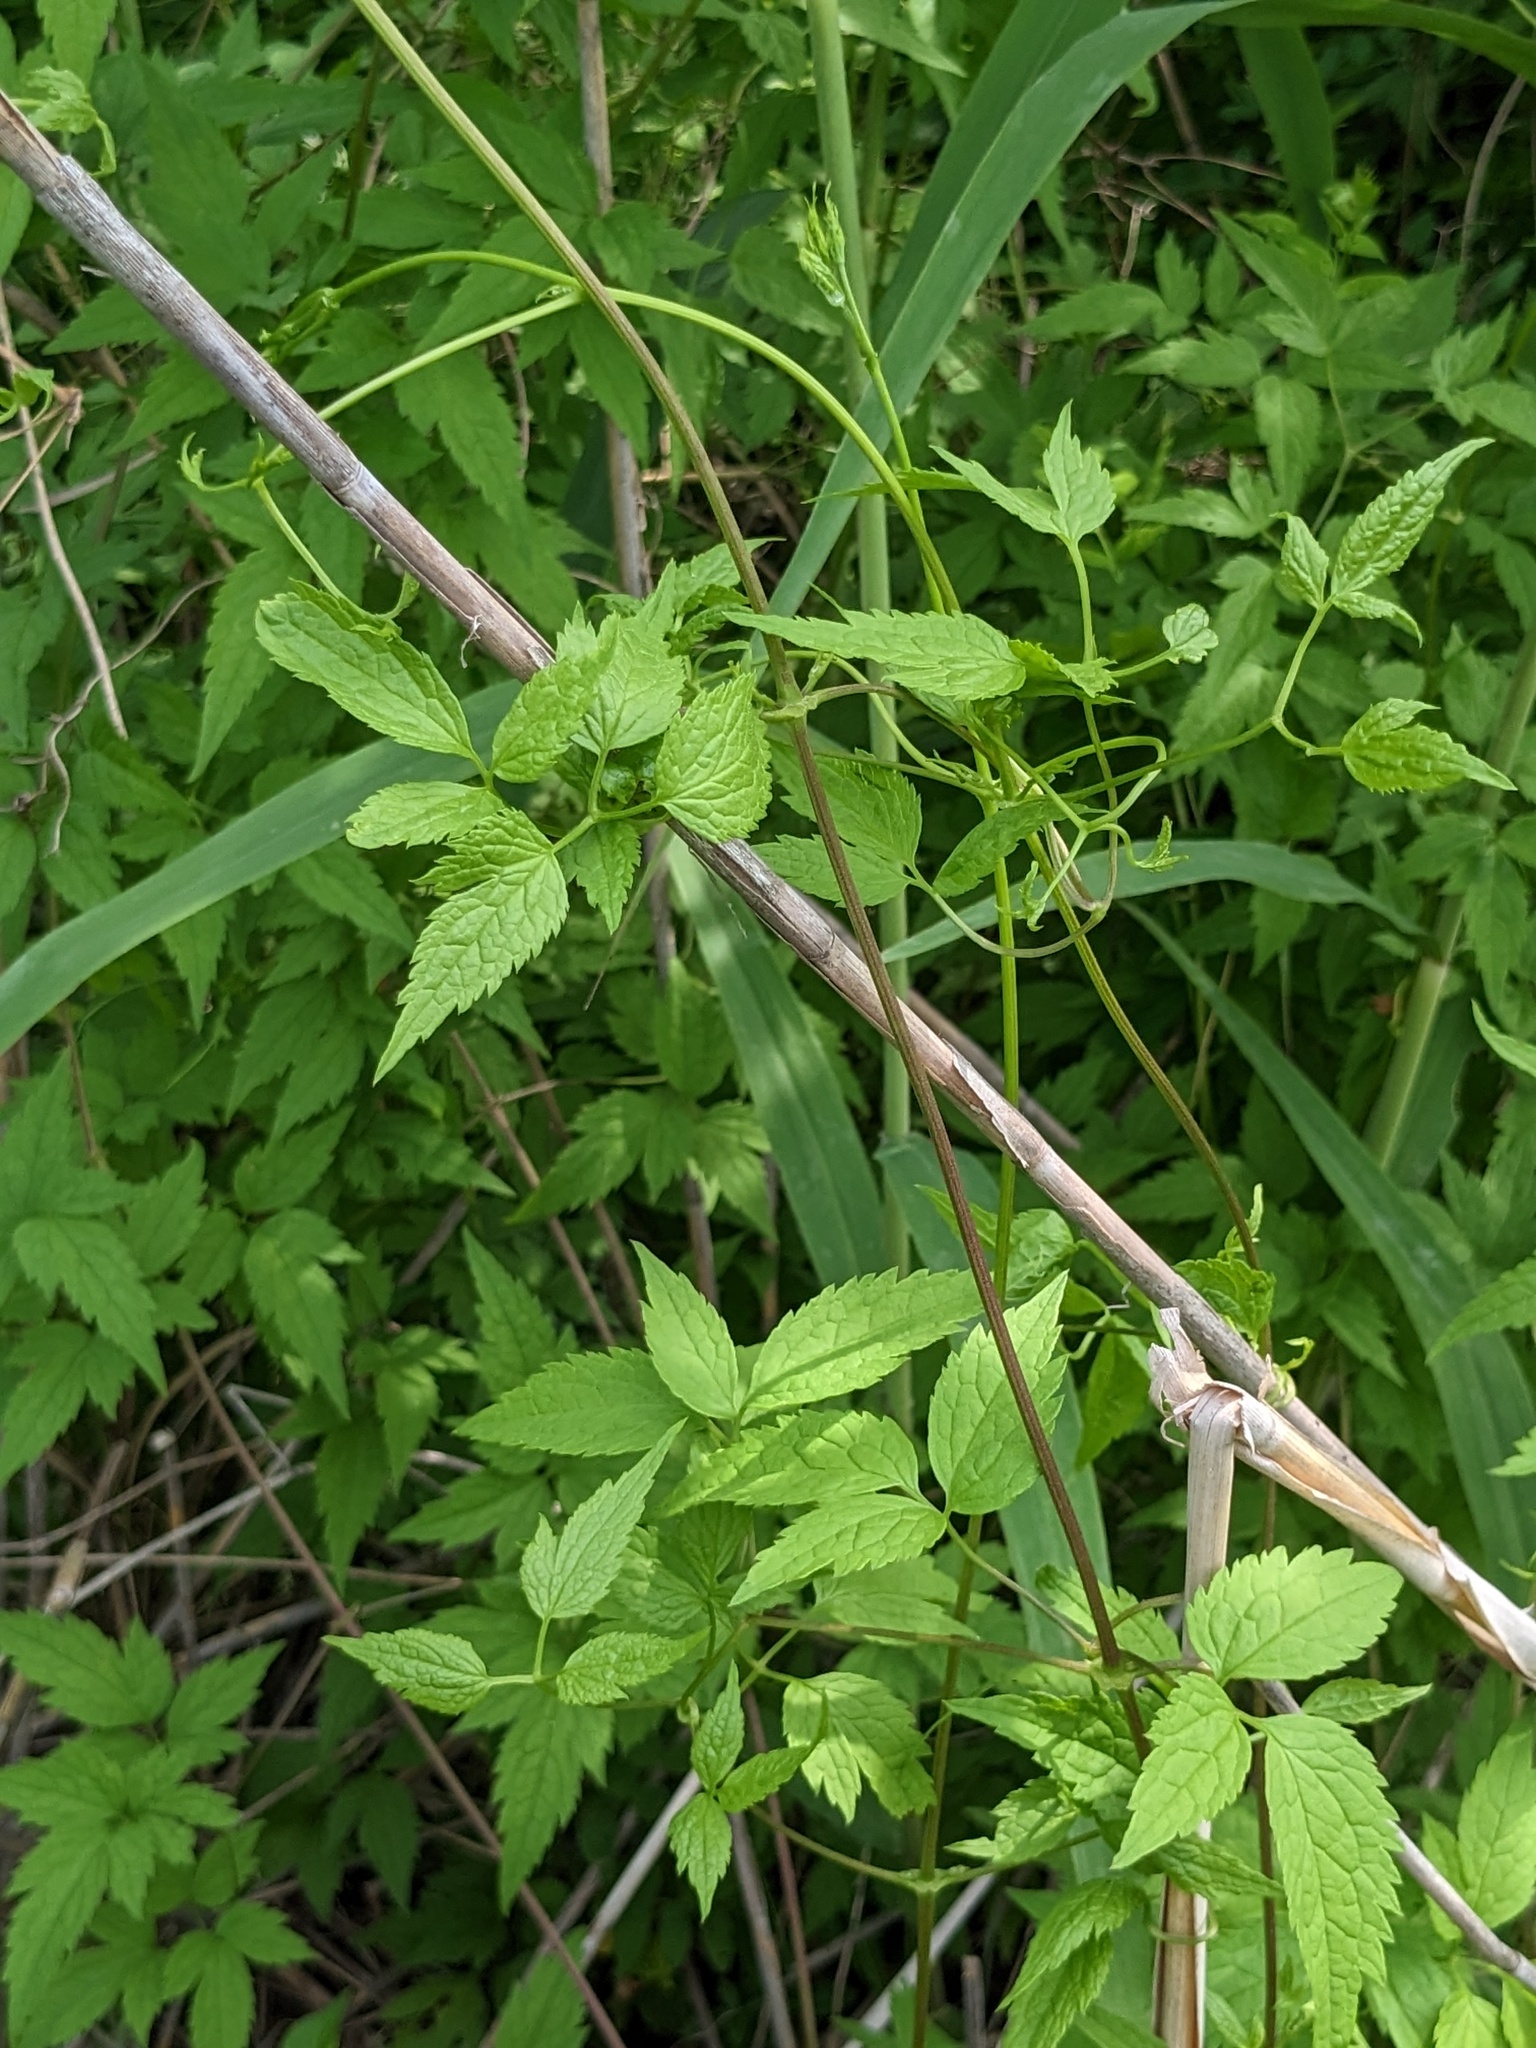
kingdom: Plantae
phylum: Tracheophyta
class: Magnoliopsida
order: Ranunculales
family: Ranunculaceae
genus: Clematis
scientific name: Clematis brevicaudata
